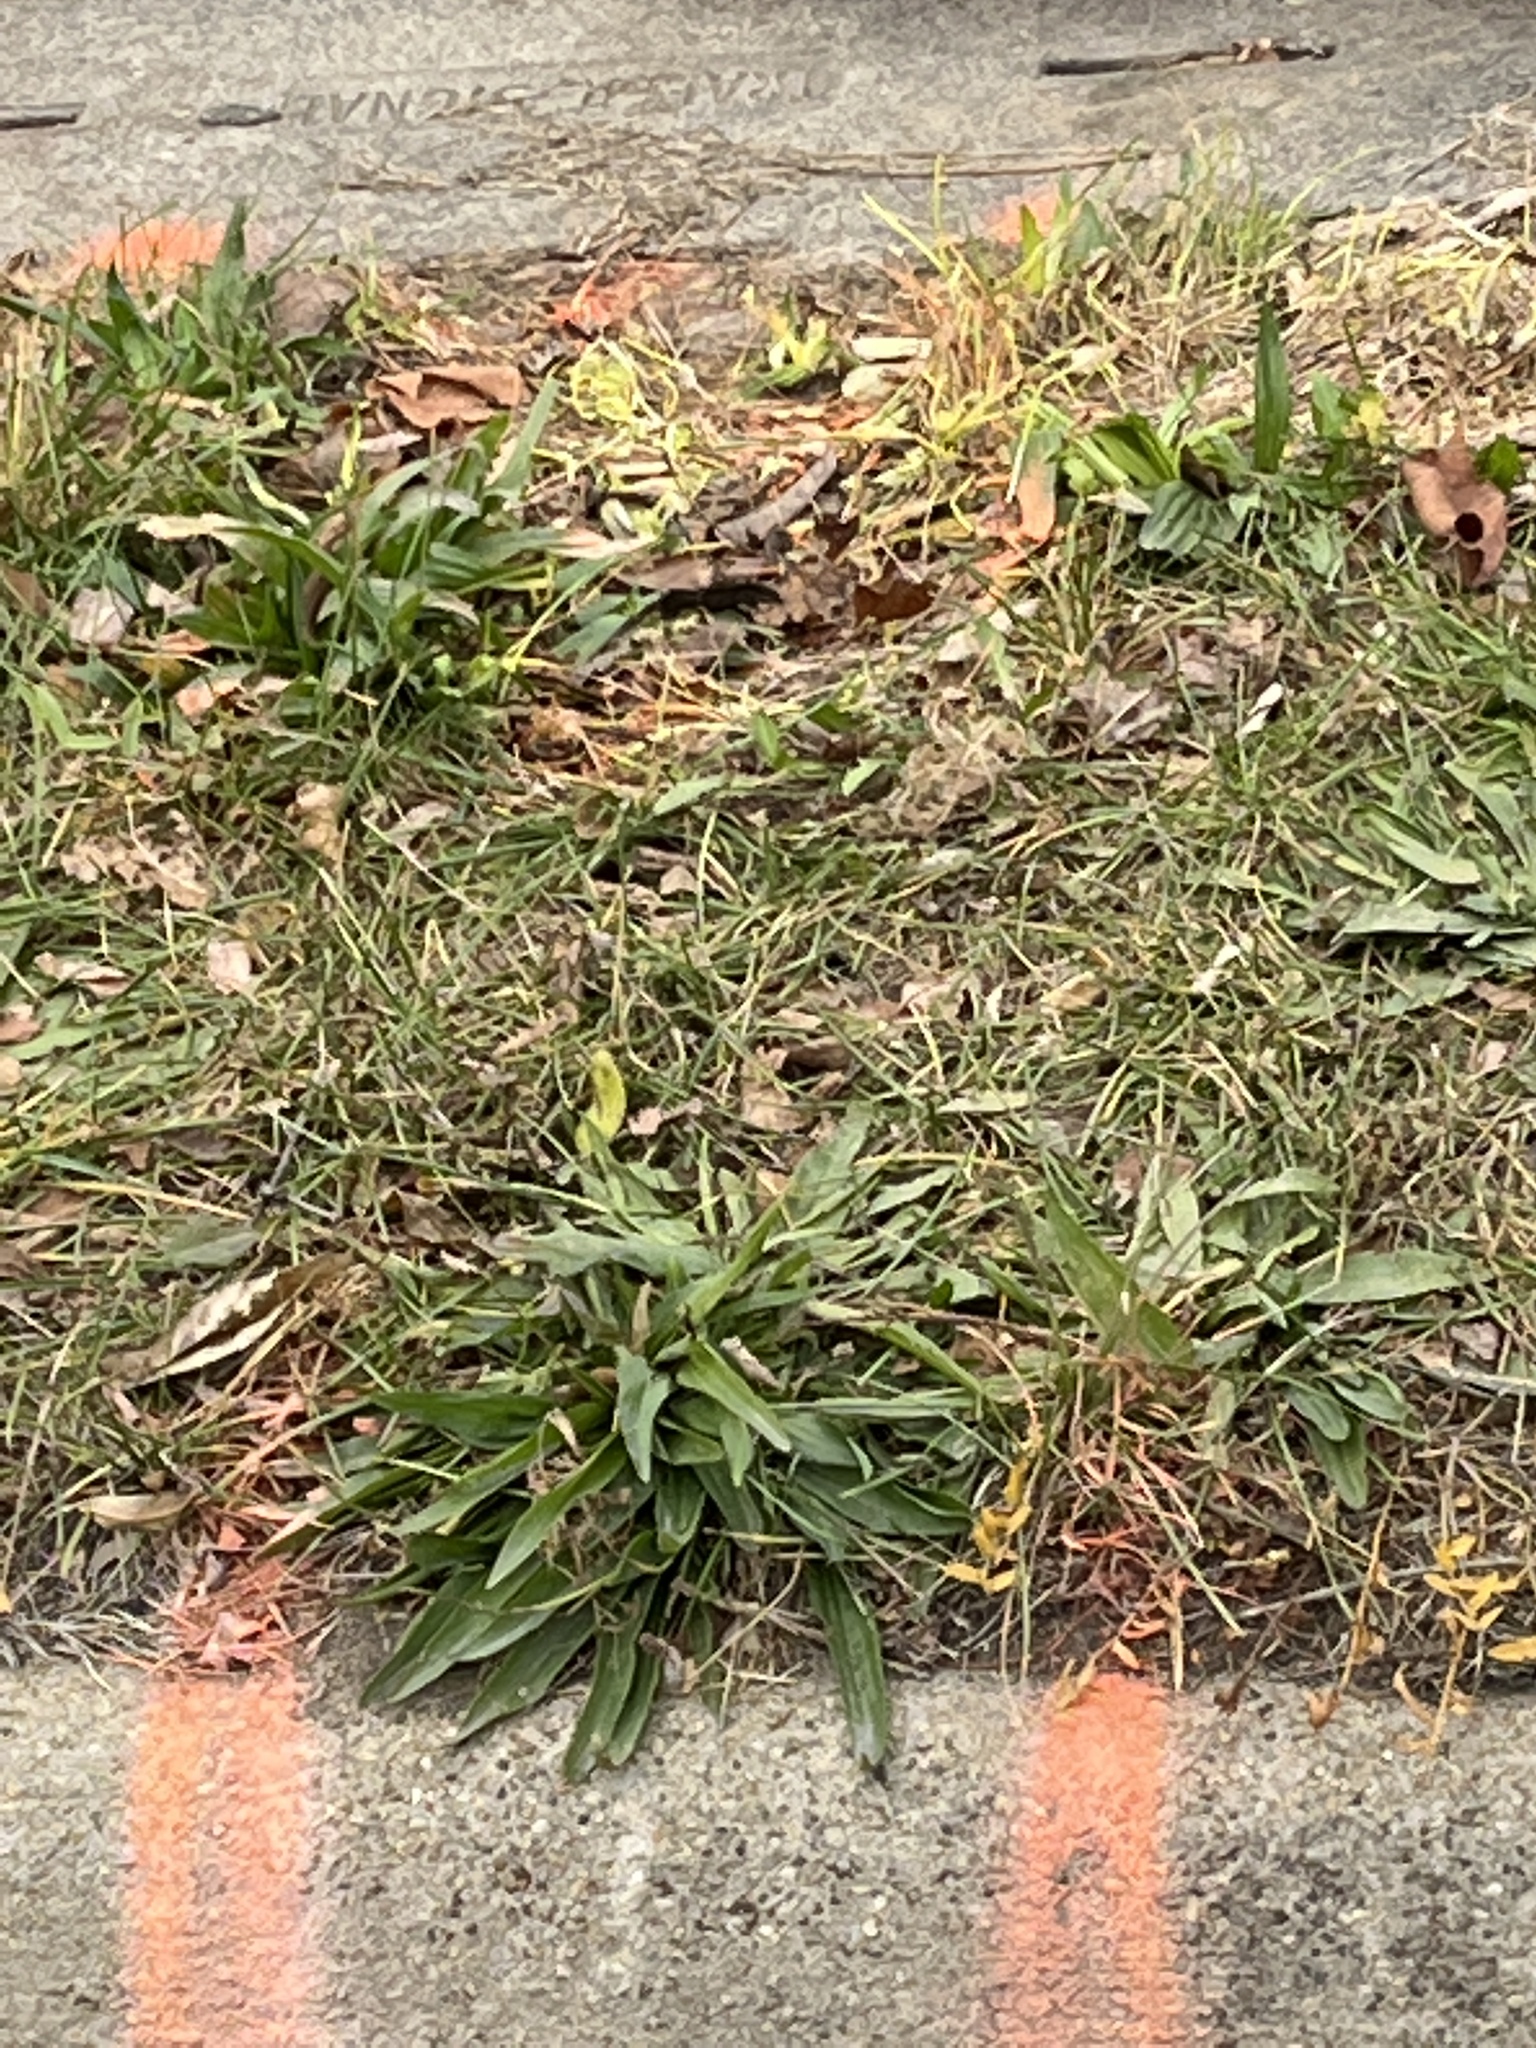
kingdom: Plantae
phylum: Tracheophyta
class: Magnoliopsida
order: Lamiales
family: Plantaginaceae
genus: Plantago
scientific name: Plantago lanceolata
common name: Ribwort plantain
